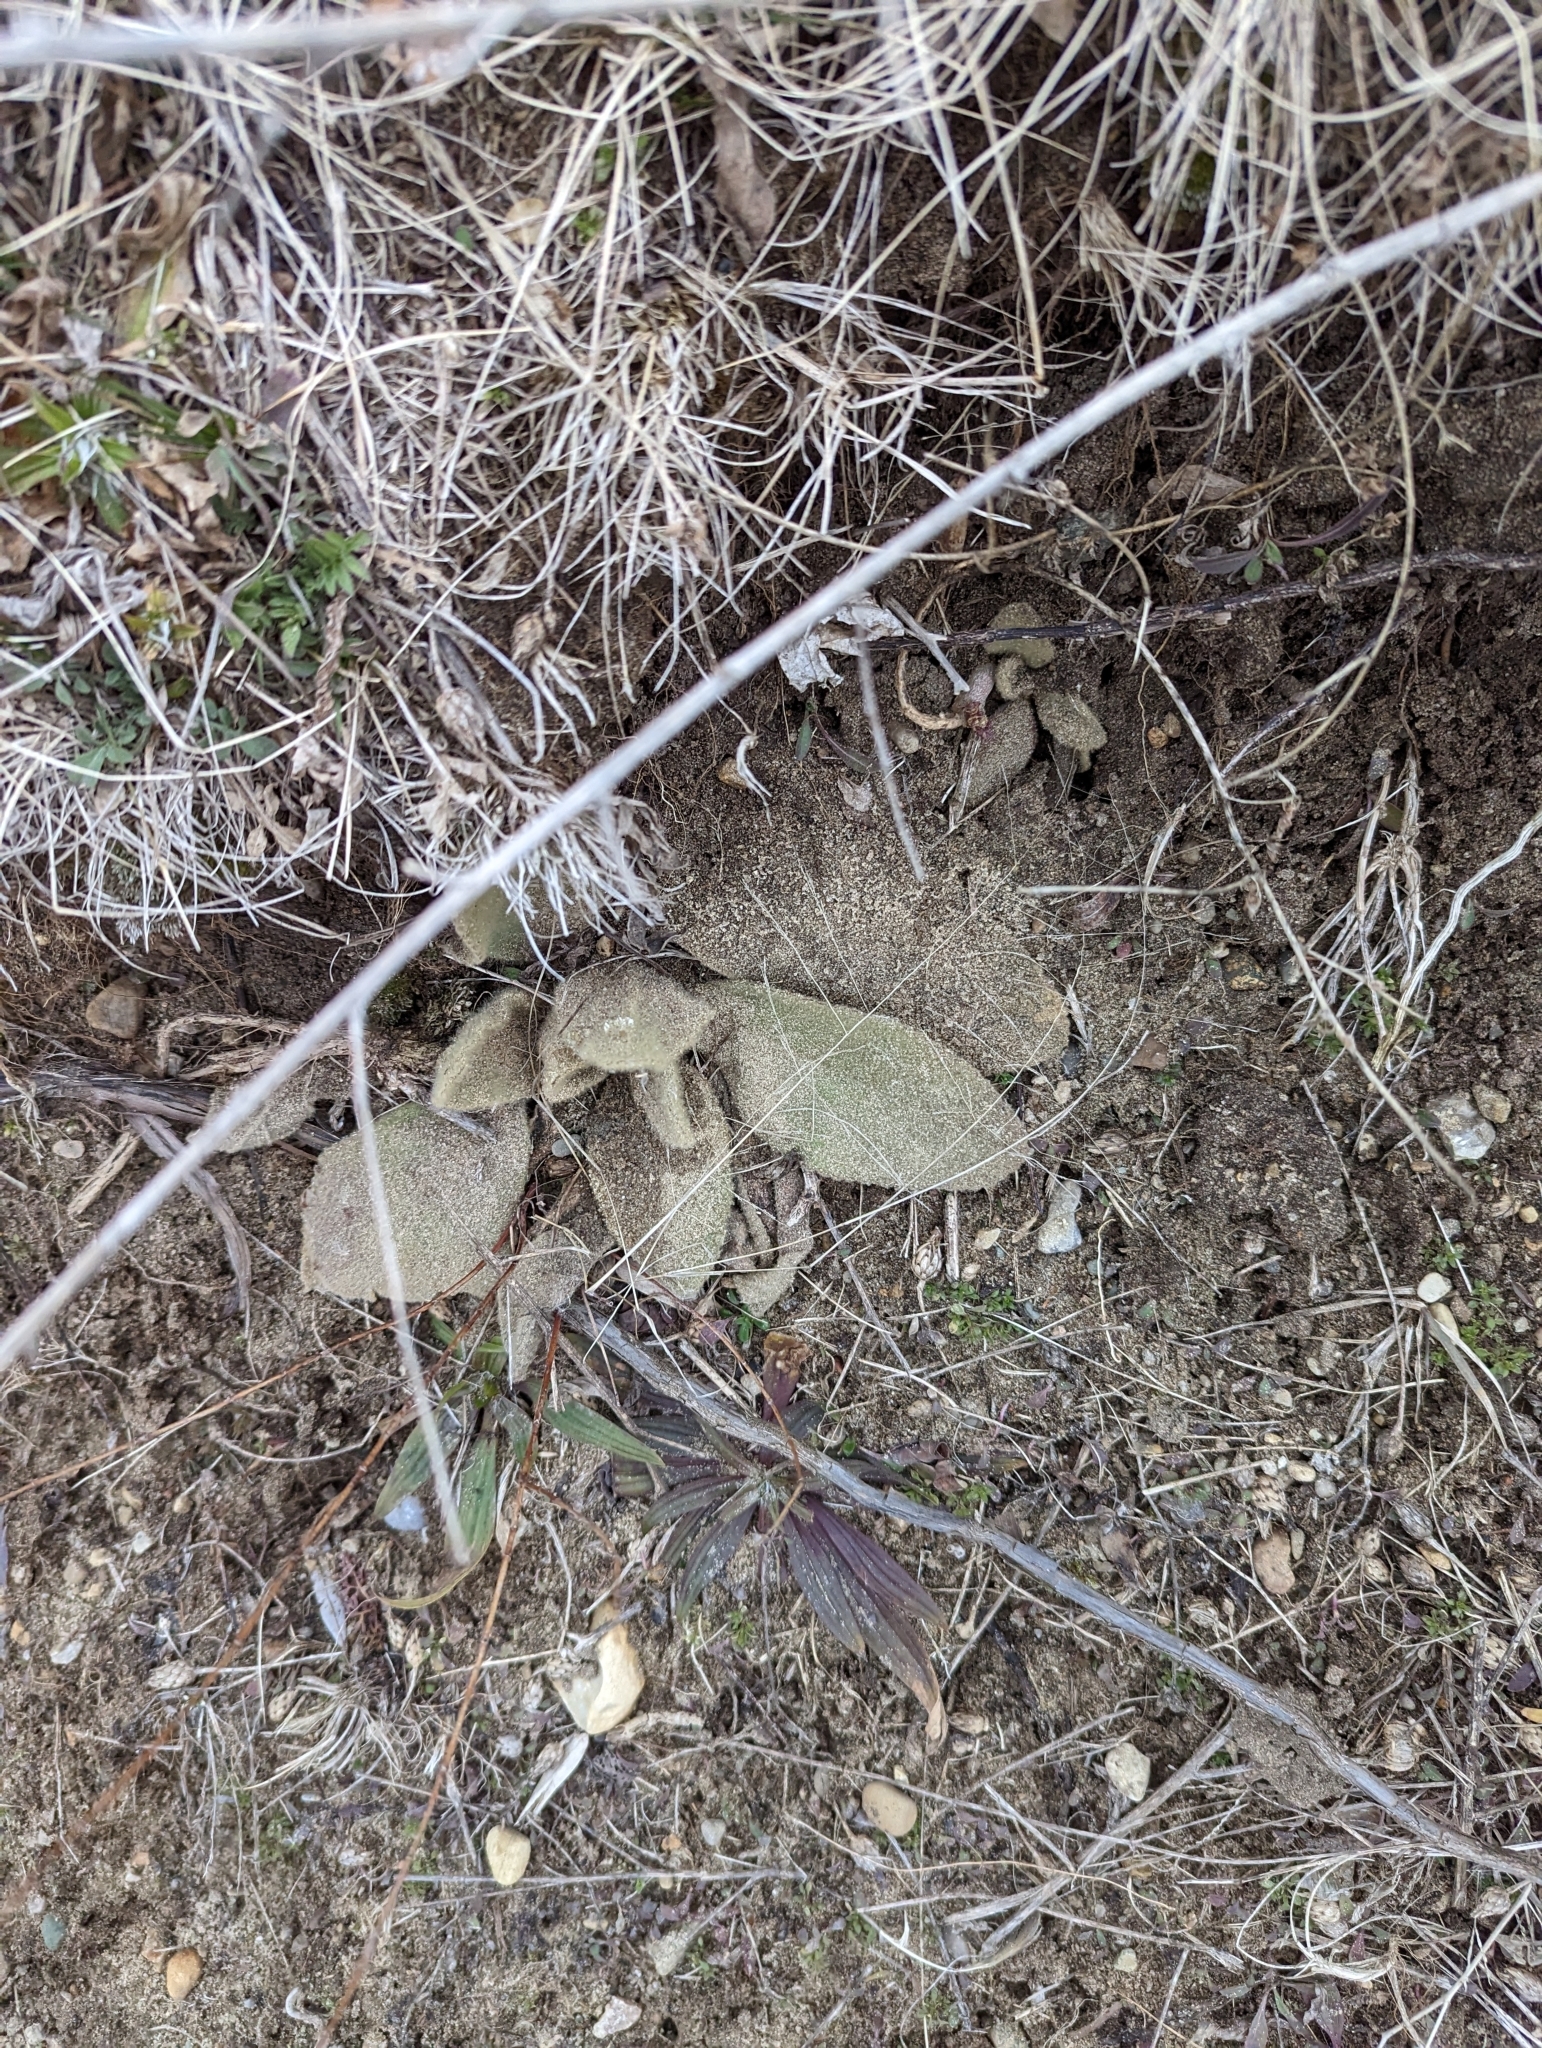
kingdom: Plantae
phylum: Tracheophyta
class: Magnoliopsida
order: Lamiales
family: Scrophulariaceae
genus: Verbascum
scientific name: Verbascum thapsus
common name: Common mullein
